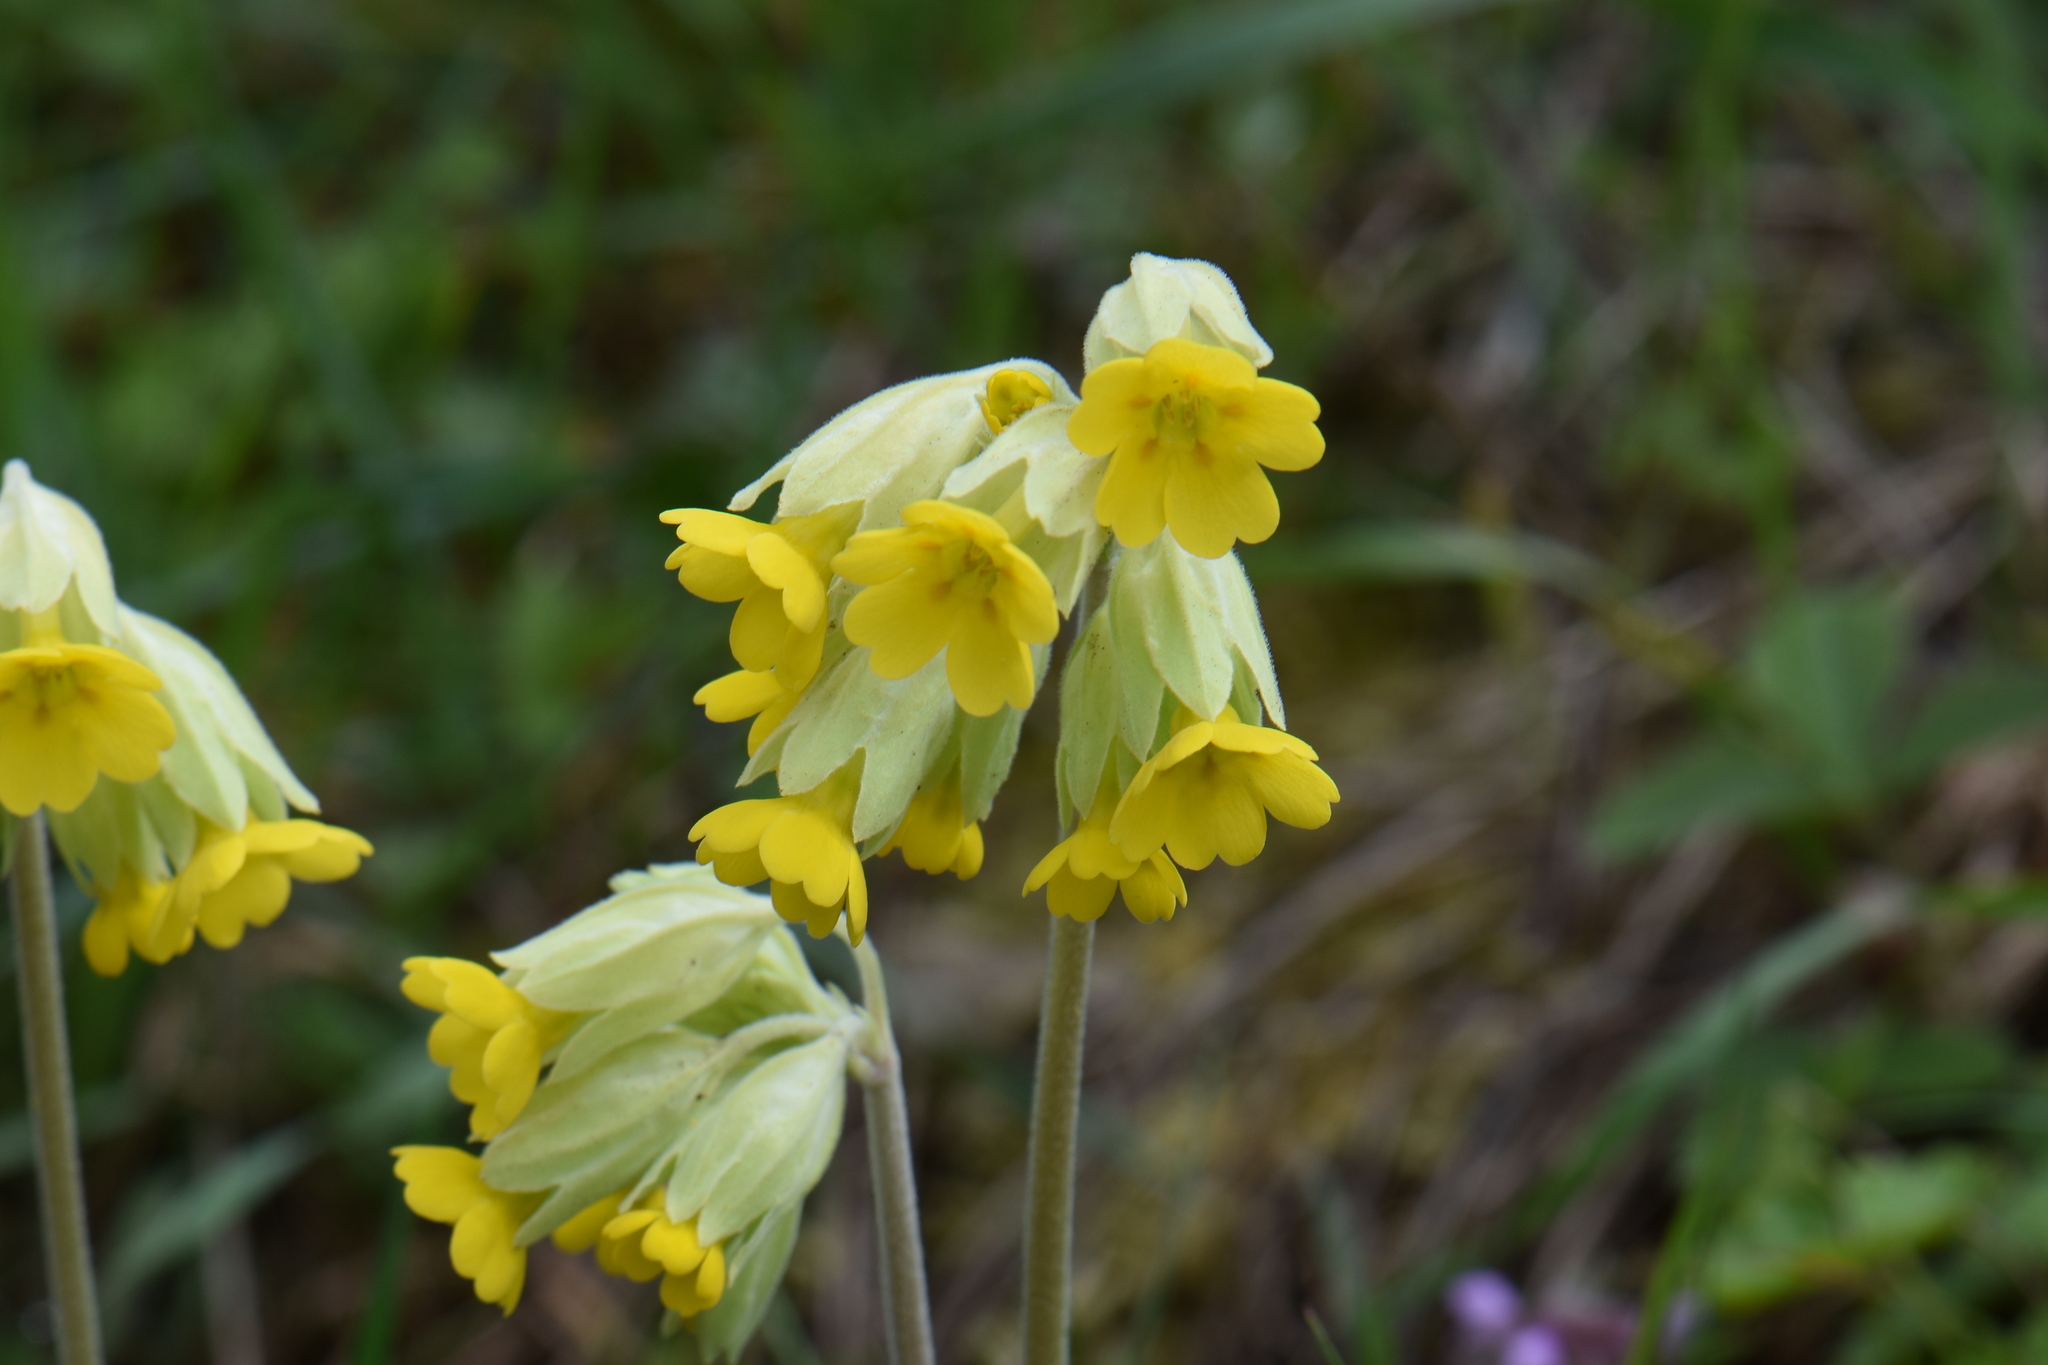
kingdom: Plantae
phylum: Tracheophyta
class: Magnoliopsida
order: Ericales
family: Primulaceae
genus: Primula
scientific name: Primula veris
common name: Cowslip
